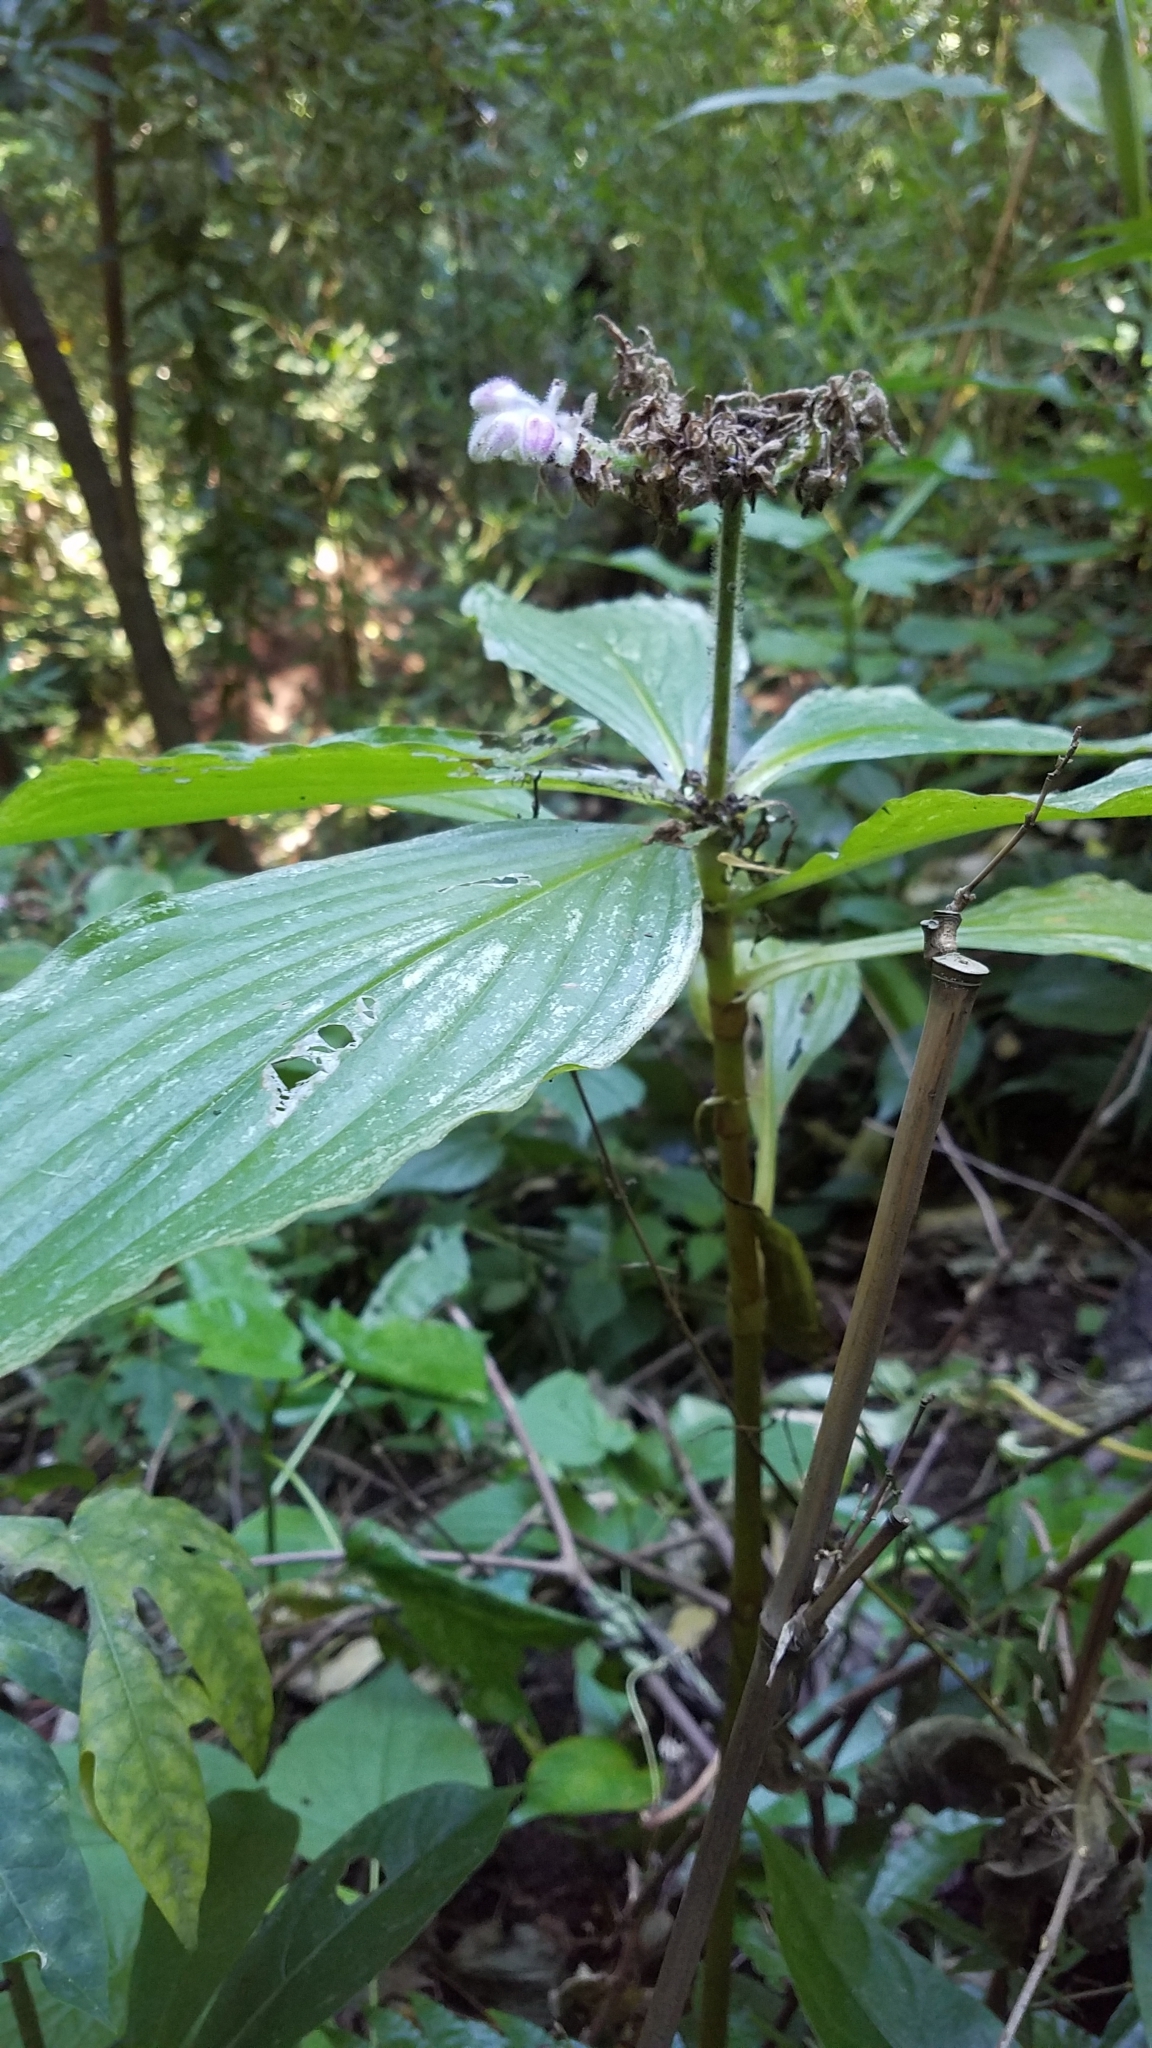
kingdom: Plantae
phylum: Tracheophyta
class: Liliopsida
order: Commelinales
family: Commelinaceae
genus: Tinantia
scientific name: Tinantia standleyi
